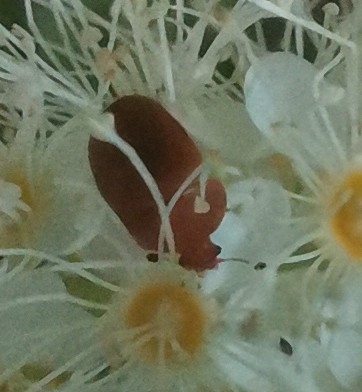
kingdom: Animalia
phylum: Arthropoda
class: Insecta
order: Coleoptera
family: Nitidulidae
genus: Cychramus
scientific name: Cychramus luteus
